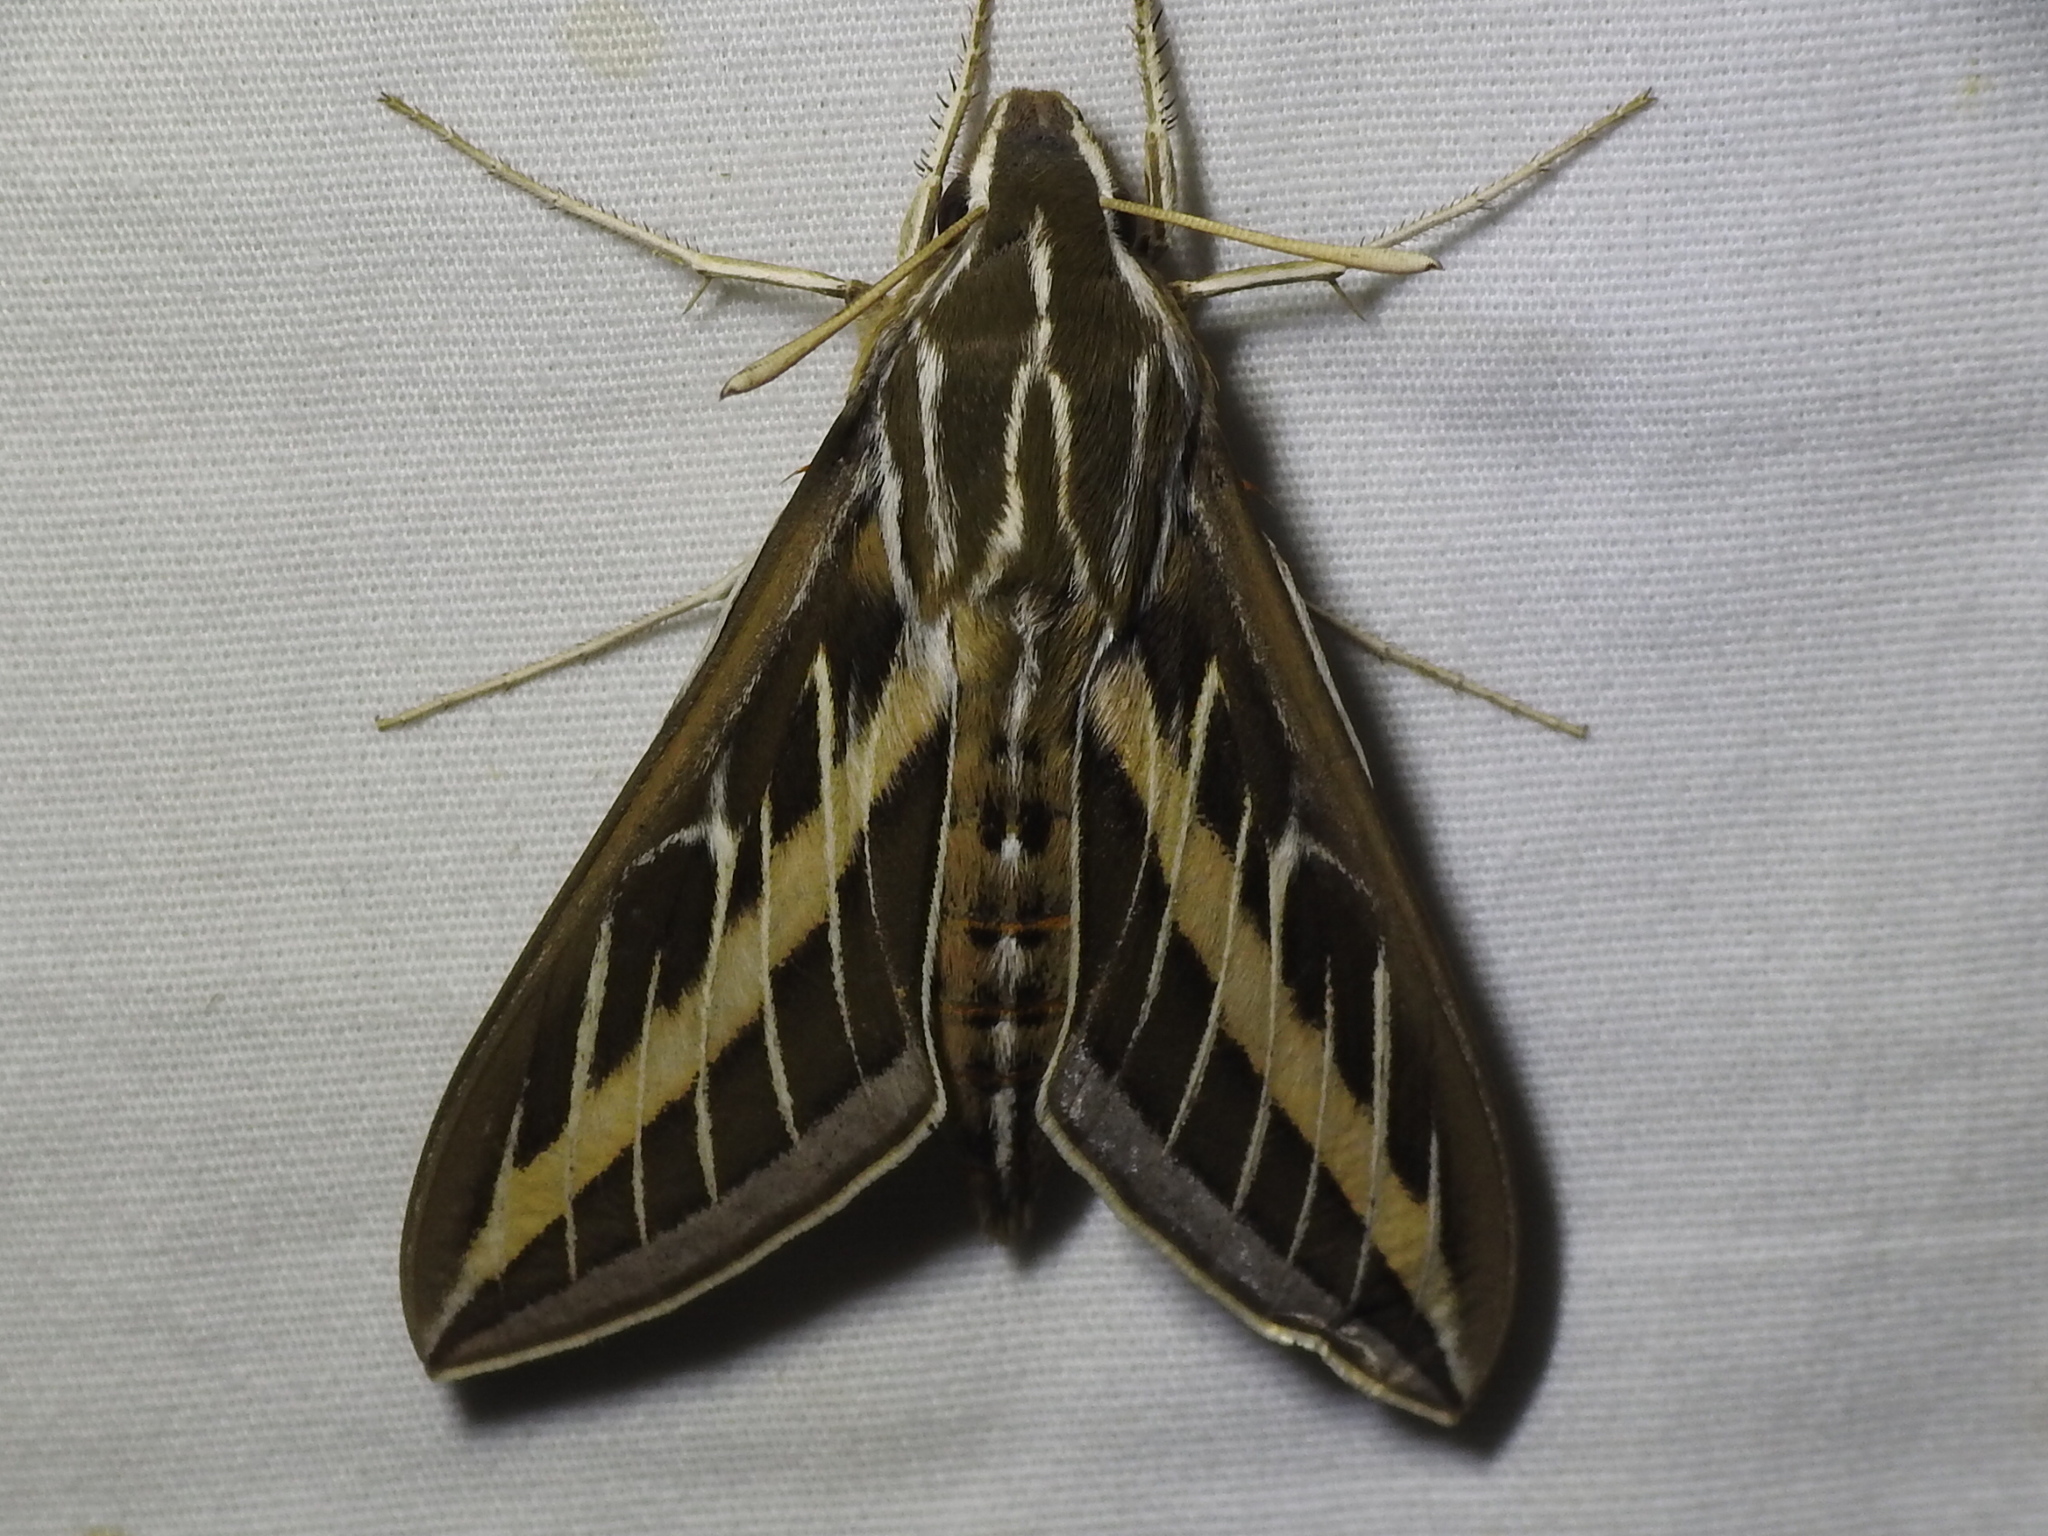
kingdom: Animalia
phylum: Arthropoda
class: Insecta
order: Lepidoptera
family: Sphingidae
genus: Hyles
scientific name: Hyles lineata
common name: White-lined sphinx
